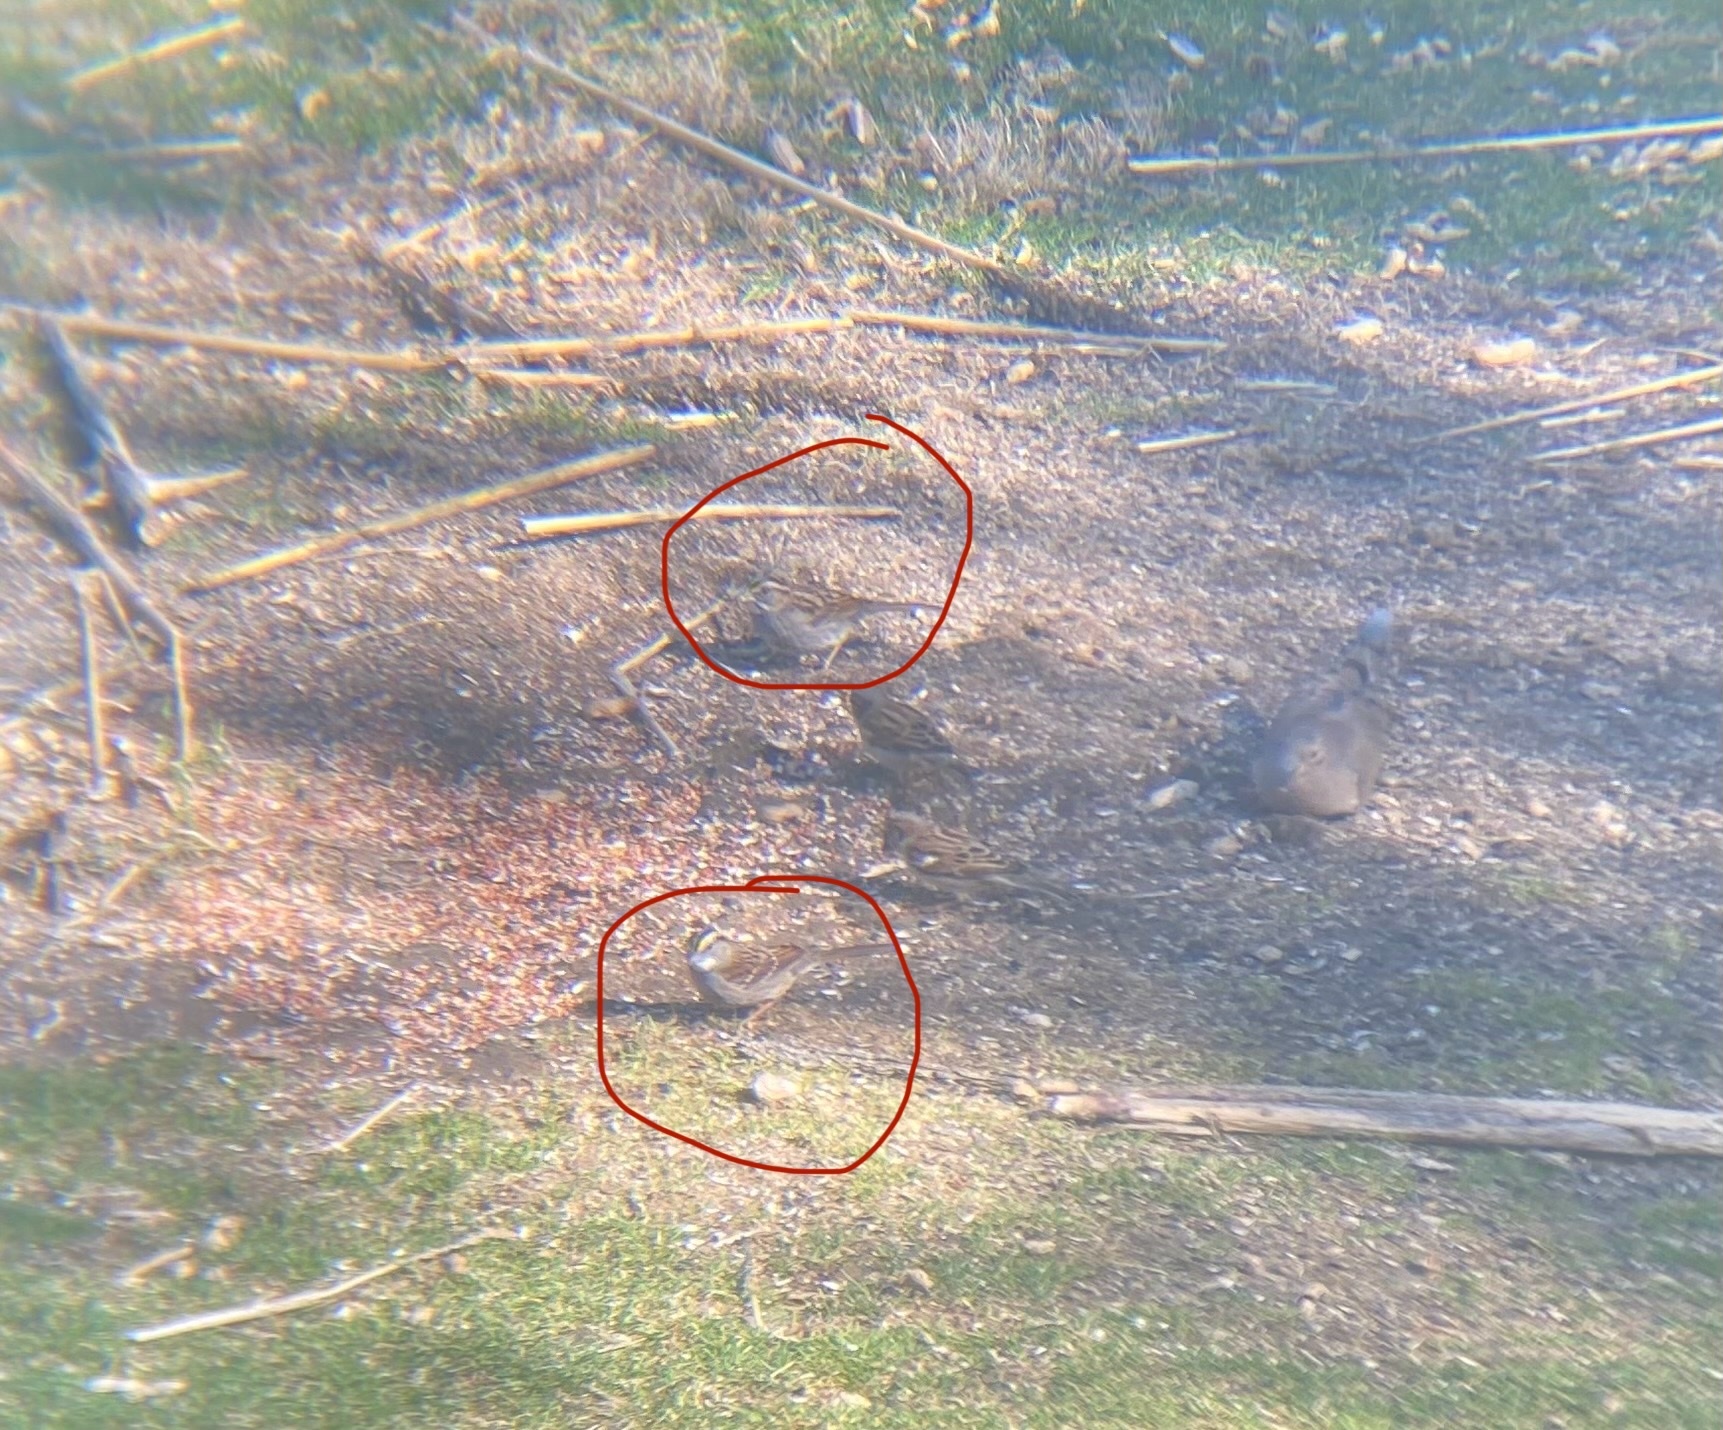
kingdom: Animalia
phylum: Chordata
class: Aves
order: Passeriformes
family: Passerellidae
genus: Zonotrichia
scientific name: Zonotrichia albicollis
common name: White-throated sparrow
